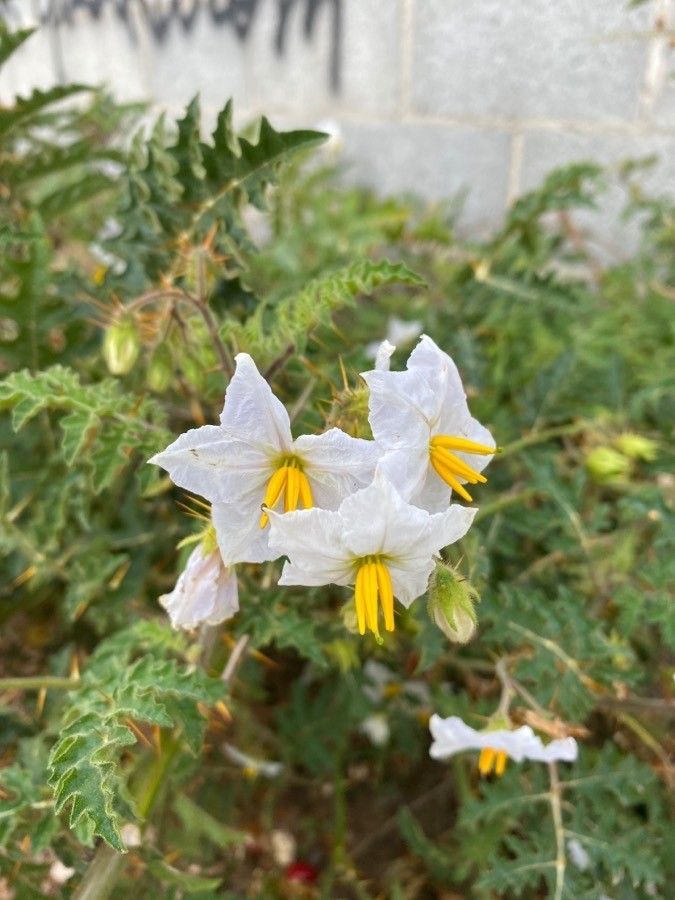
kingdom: Plantae
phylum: Tracheophyta
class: Magnoliopsida
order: Solanales
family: Solanaceae
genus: Solanum
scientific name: Solanum sisymbriifolium
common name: Red buffalo-bur
